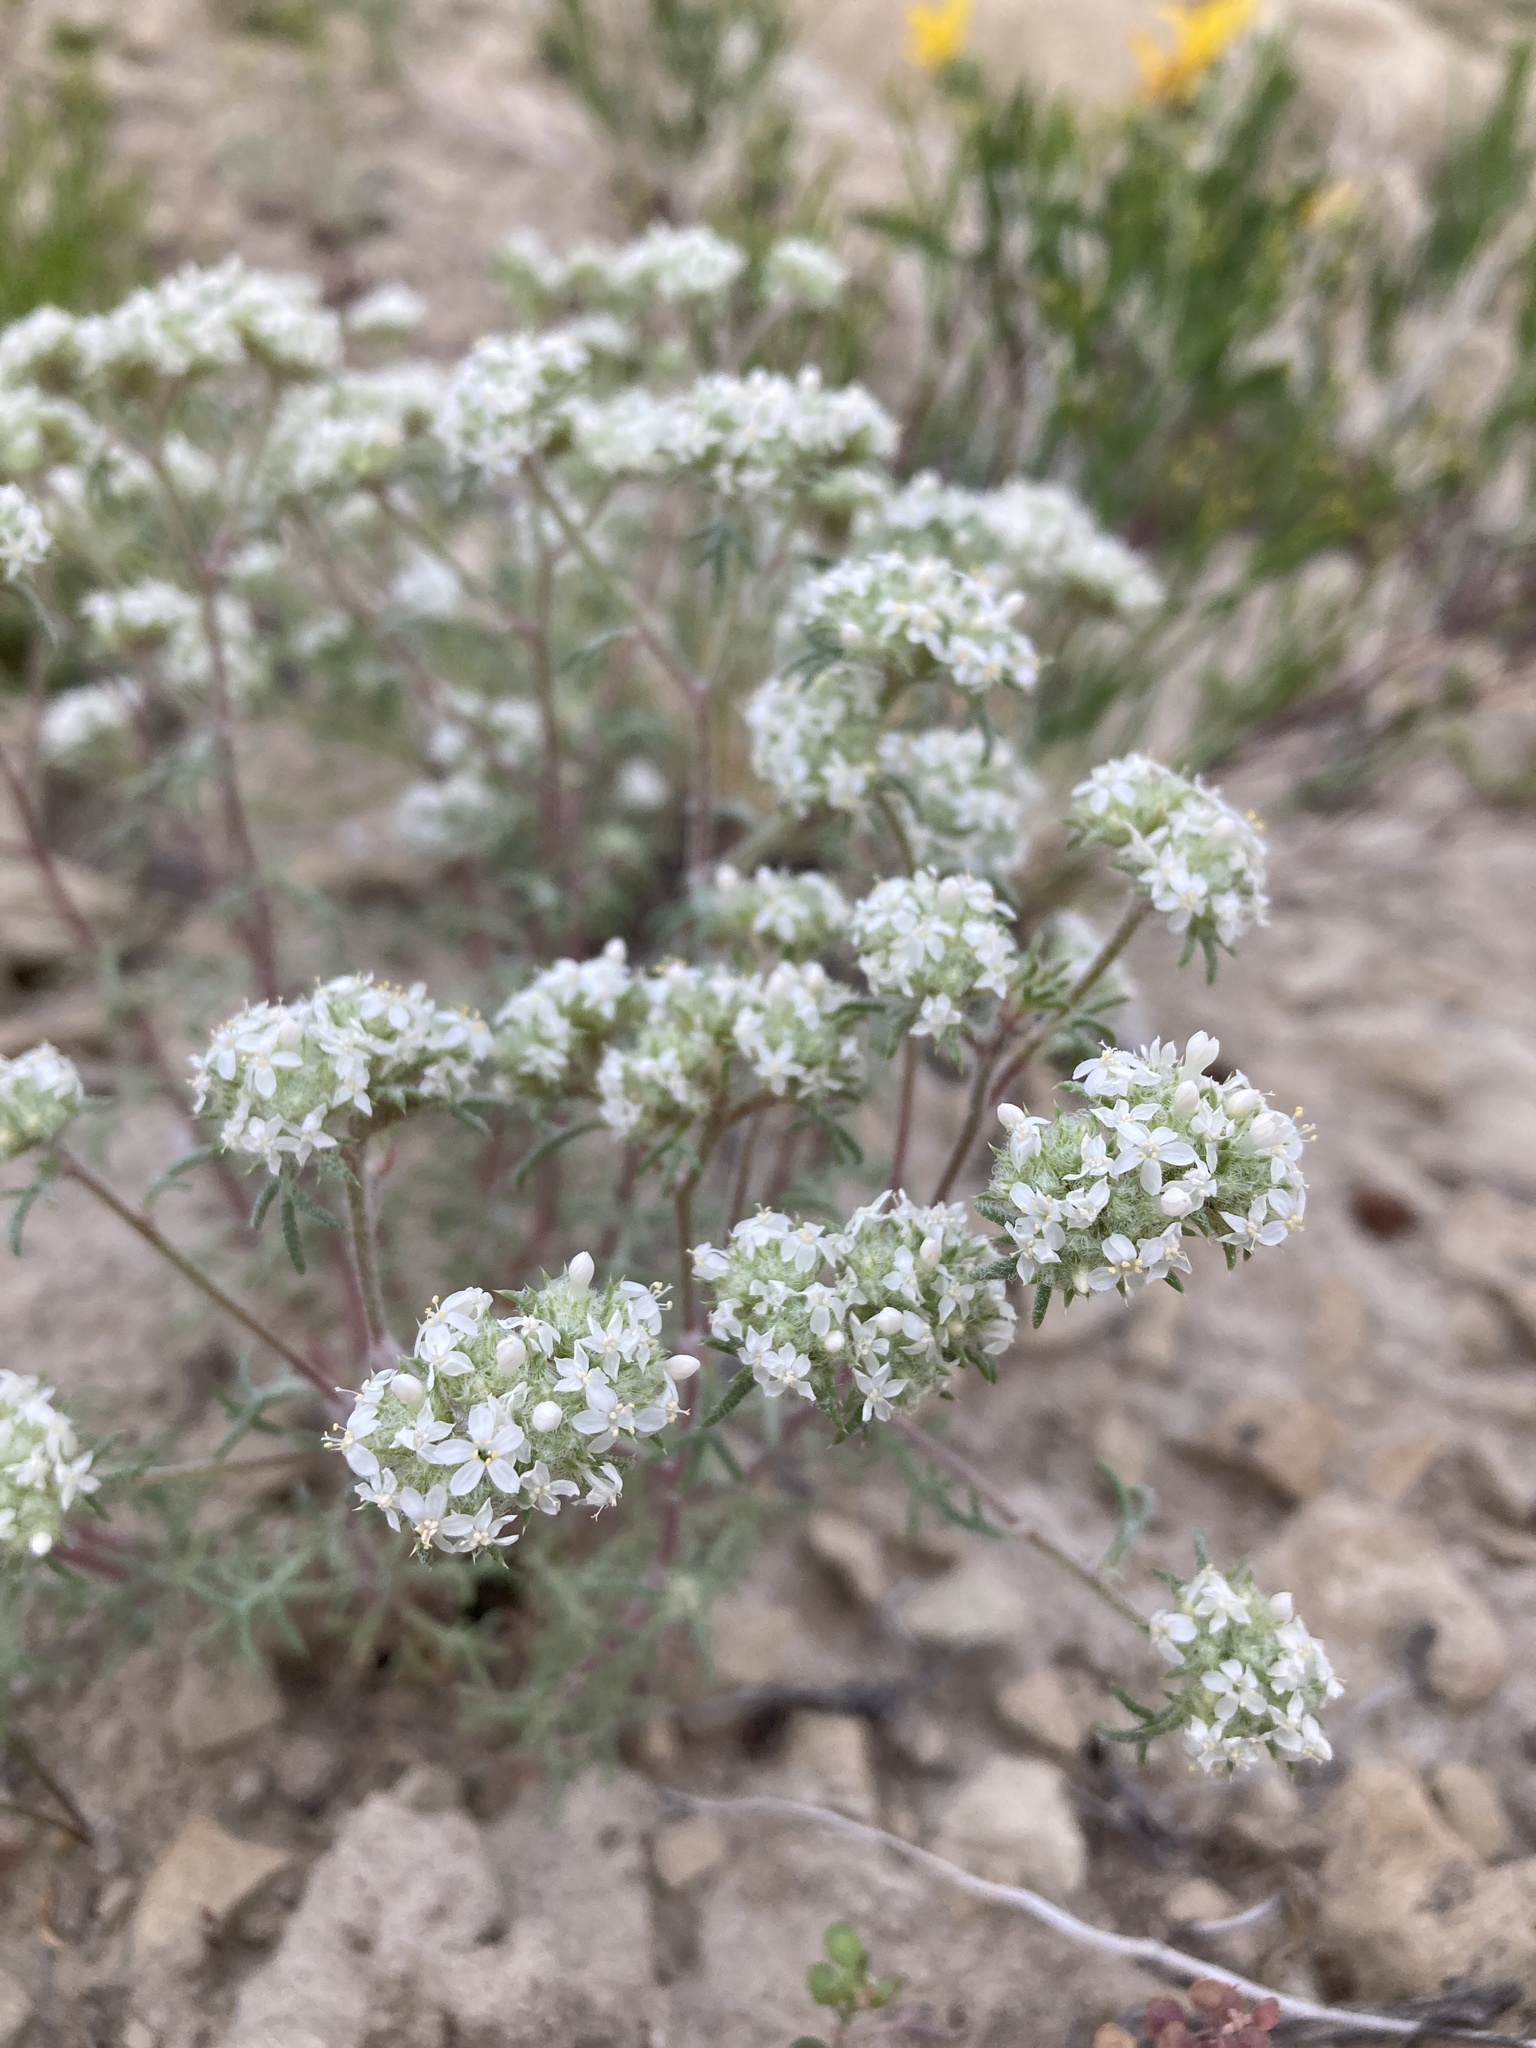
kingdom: Plantae
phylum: Tracheophyta
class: Magnoliopsida
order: Ericales
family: Polemoniaceae
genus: Ipomopsis
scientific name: Ipomopsis congesta
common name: Ball-head gilia
